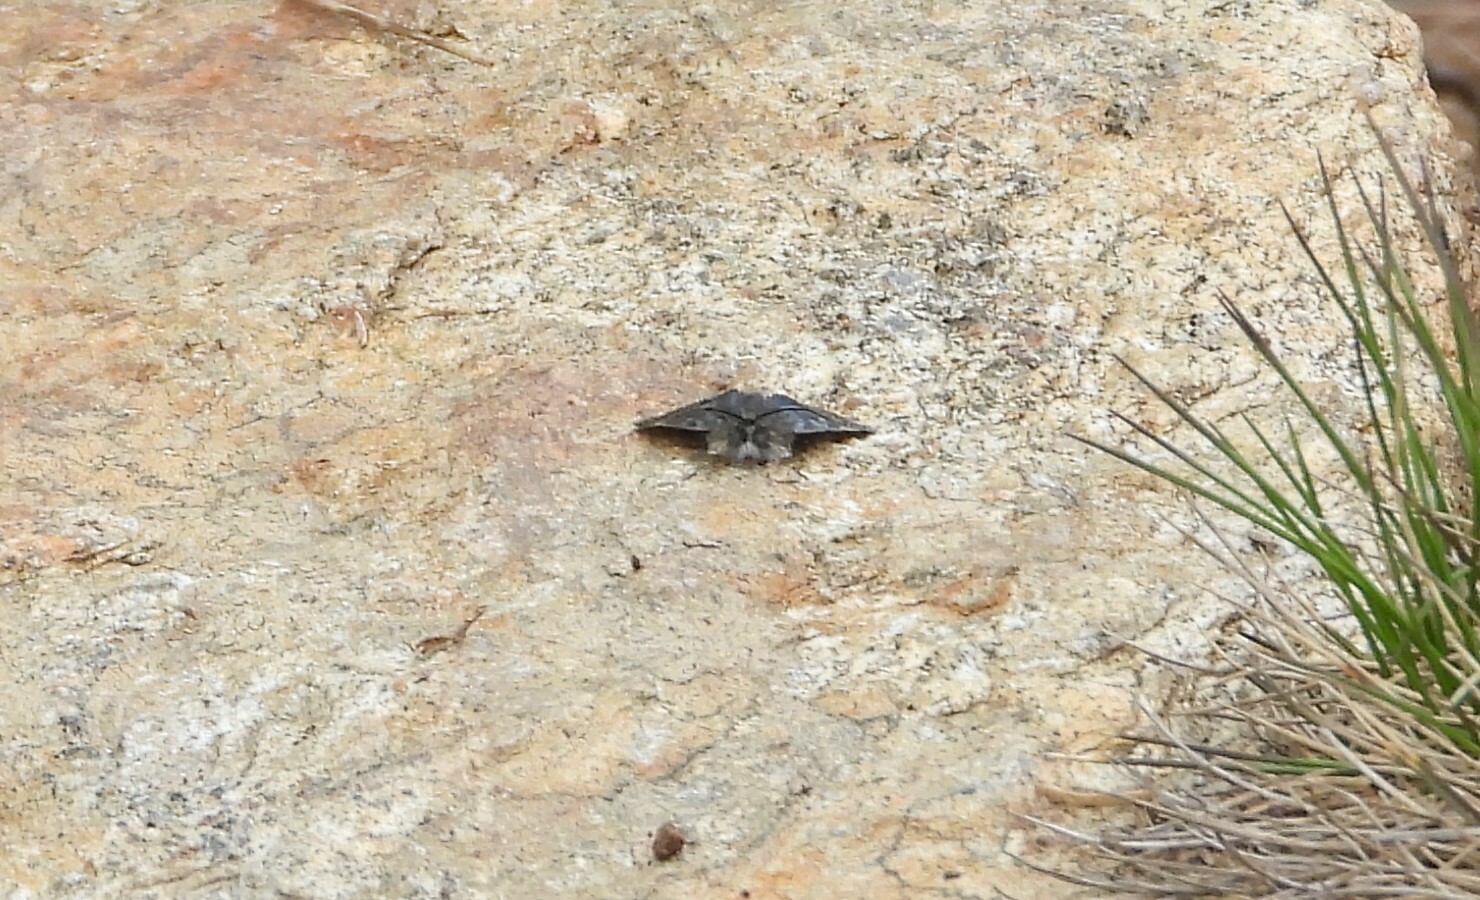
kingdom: Animalia
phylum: Arthropoda
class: Insecta
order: Lepidoptera
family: Crambidae
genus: Metaxmeste
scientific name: Metaxmeste phrygialis
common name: Black mountain pearl
